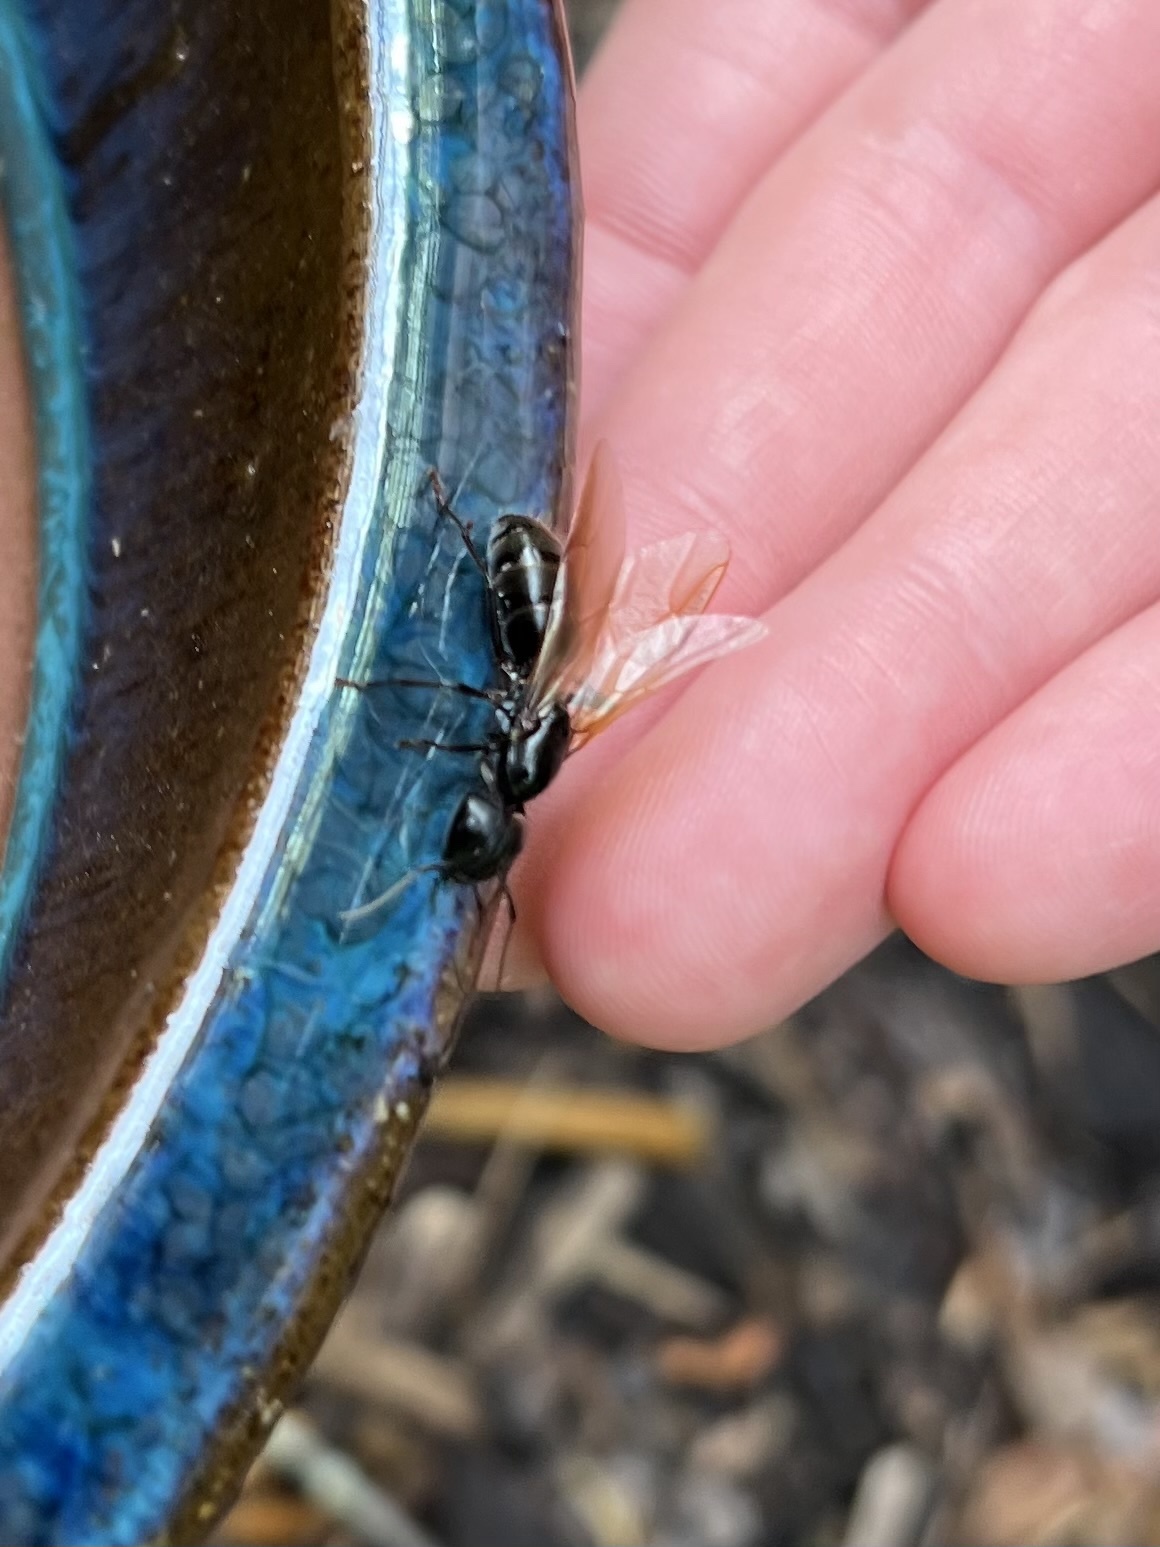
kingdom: Animalia
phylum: Arthropoda
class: Insecta
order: Hymenoptera
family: Formicidae
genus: Camponotus
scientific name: Camponotus pennsylvanicus
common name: Black carpenter ant
